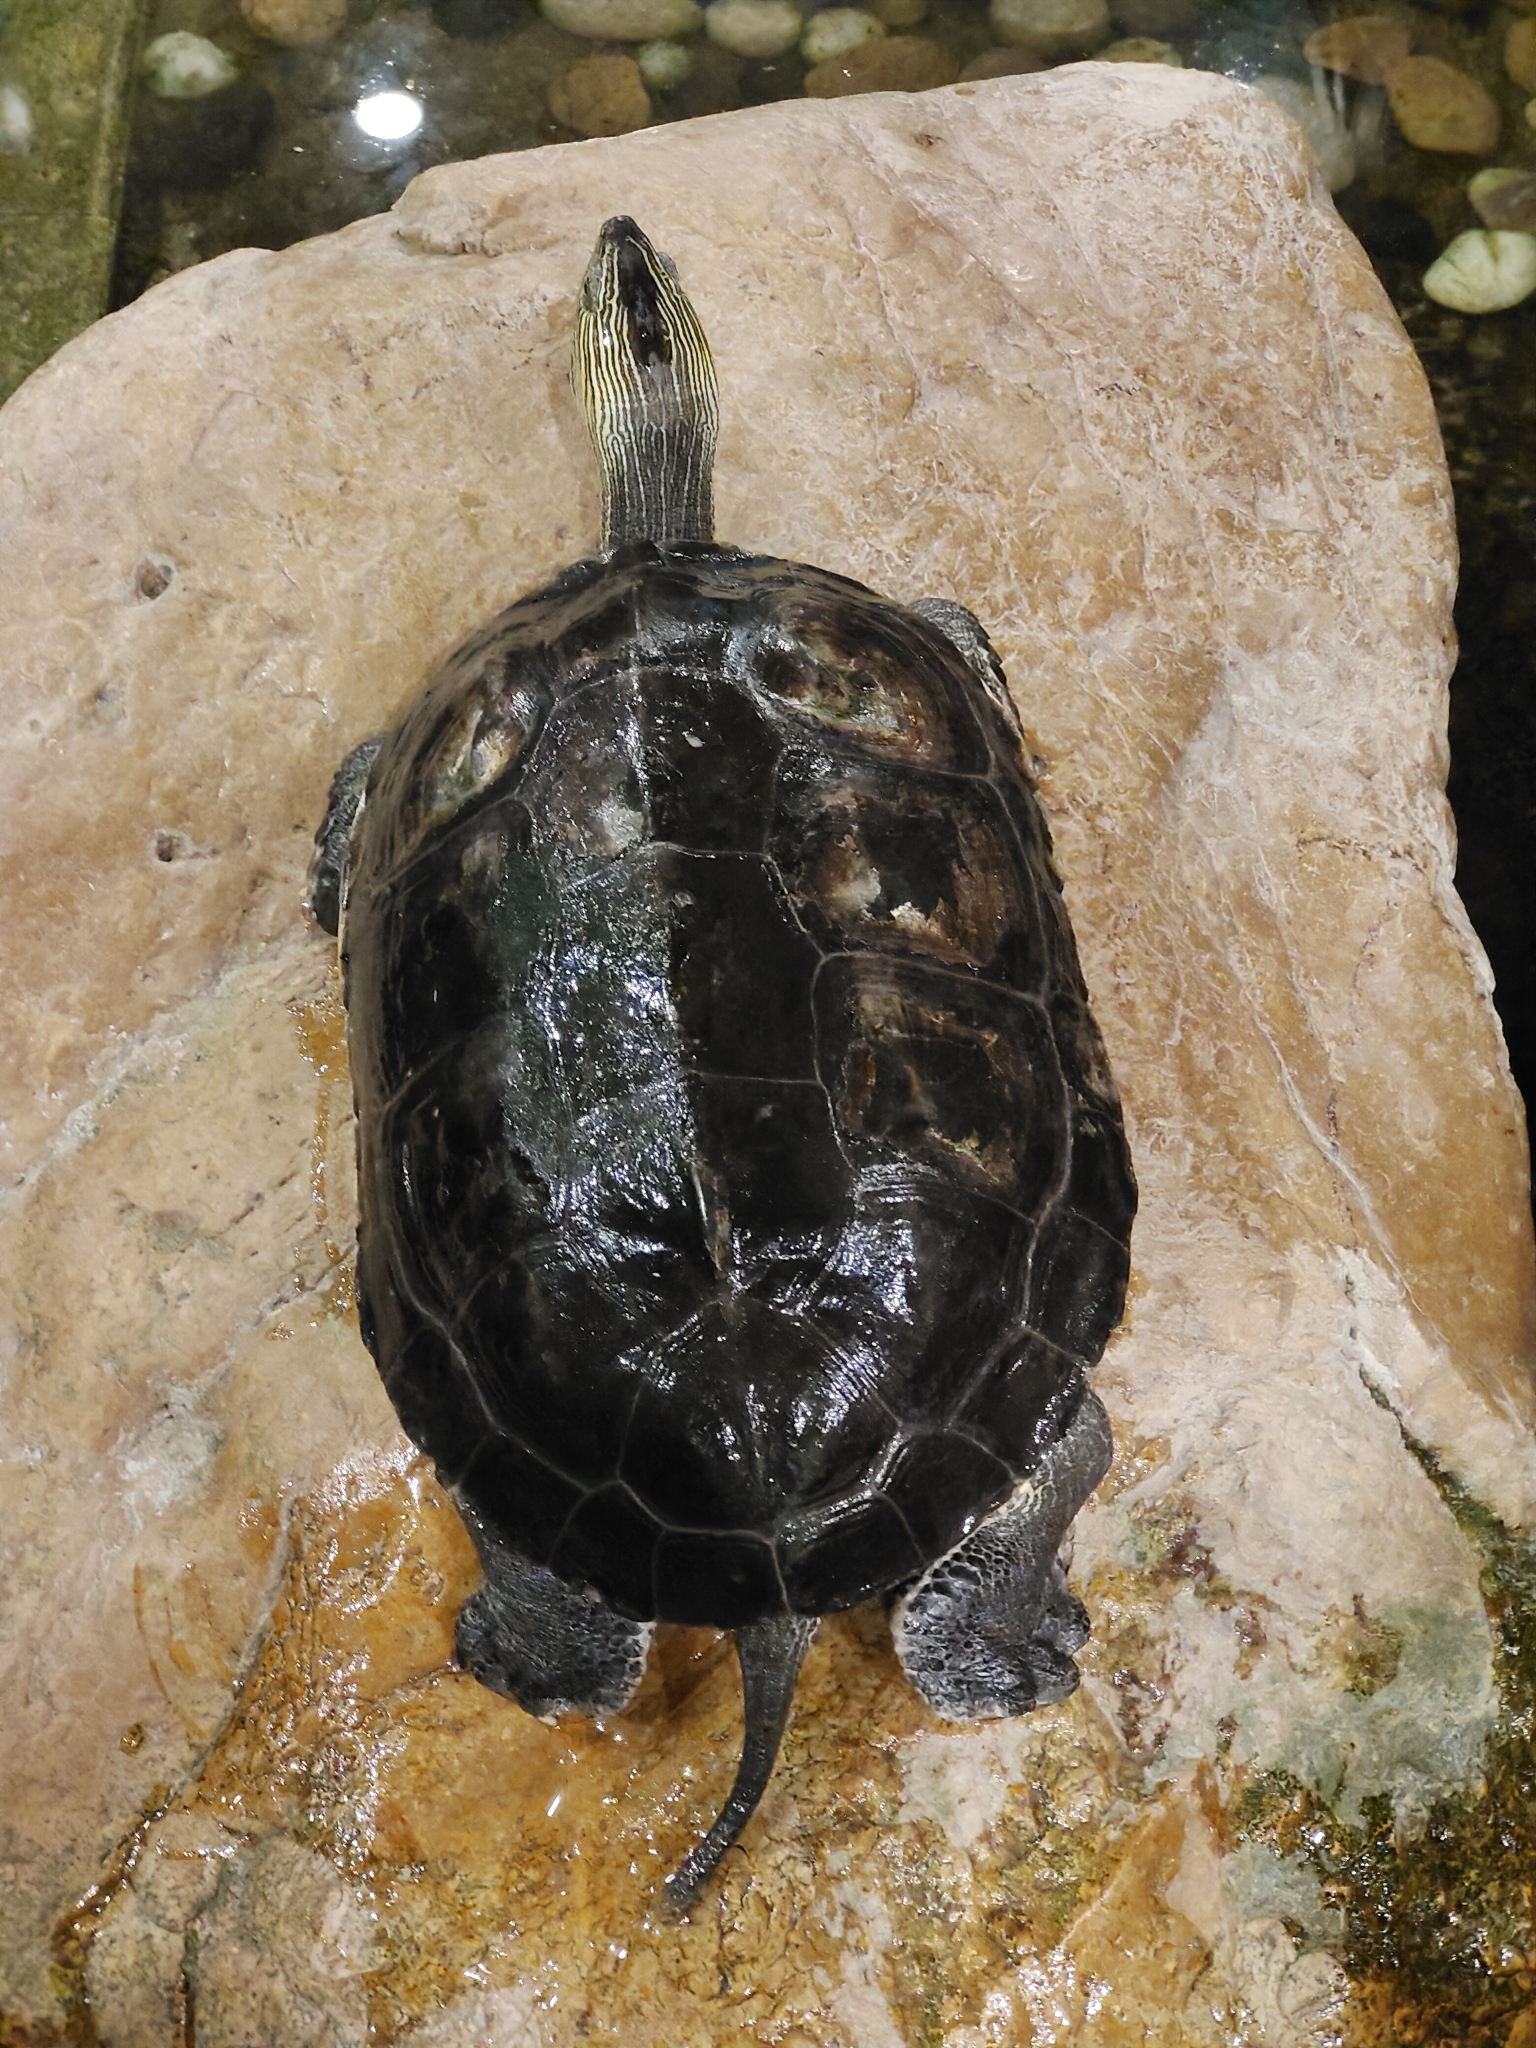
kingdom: Animalia
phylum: Chordata
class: Testudines
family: Geoemydidae
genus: Mauremys
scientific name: Mauremys sinensis
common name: Chinese stripe-necked turtle
